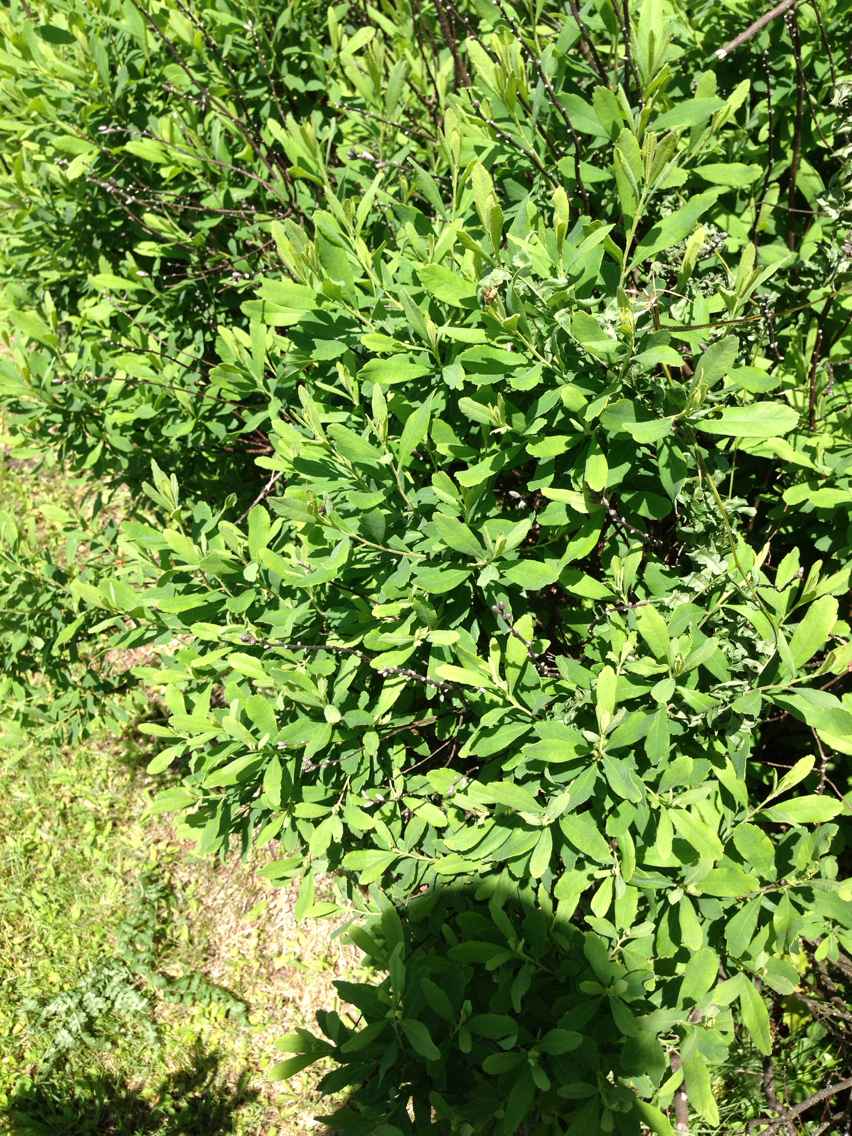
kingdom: Plantae
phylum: Tracheophyta
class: Magnoliopsida
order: Fagales
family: Myricaceae
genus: Myrica
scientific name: Myrica gale
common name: Sweet gale
